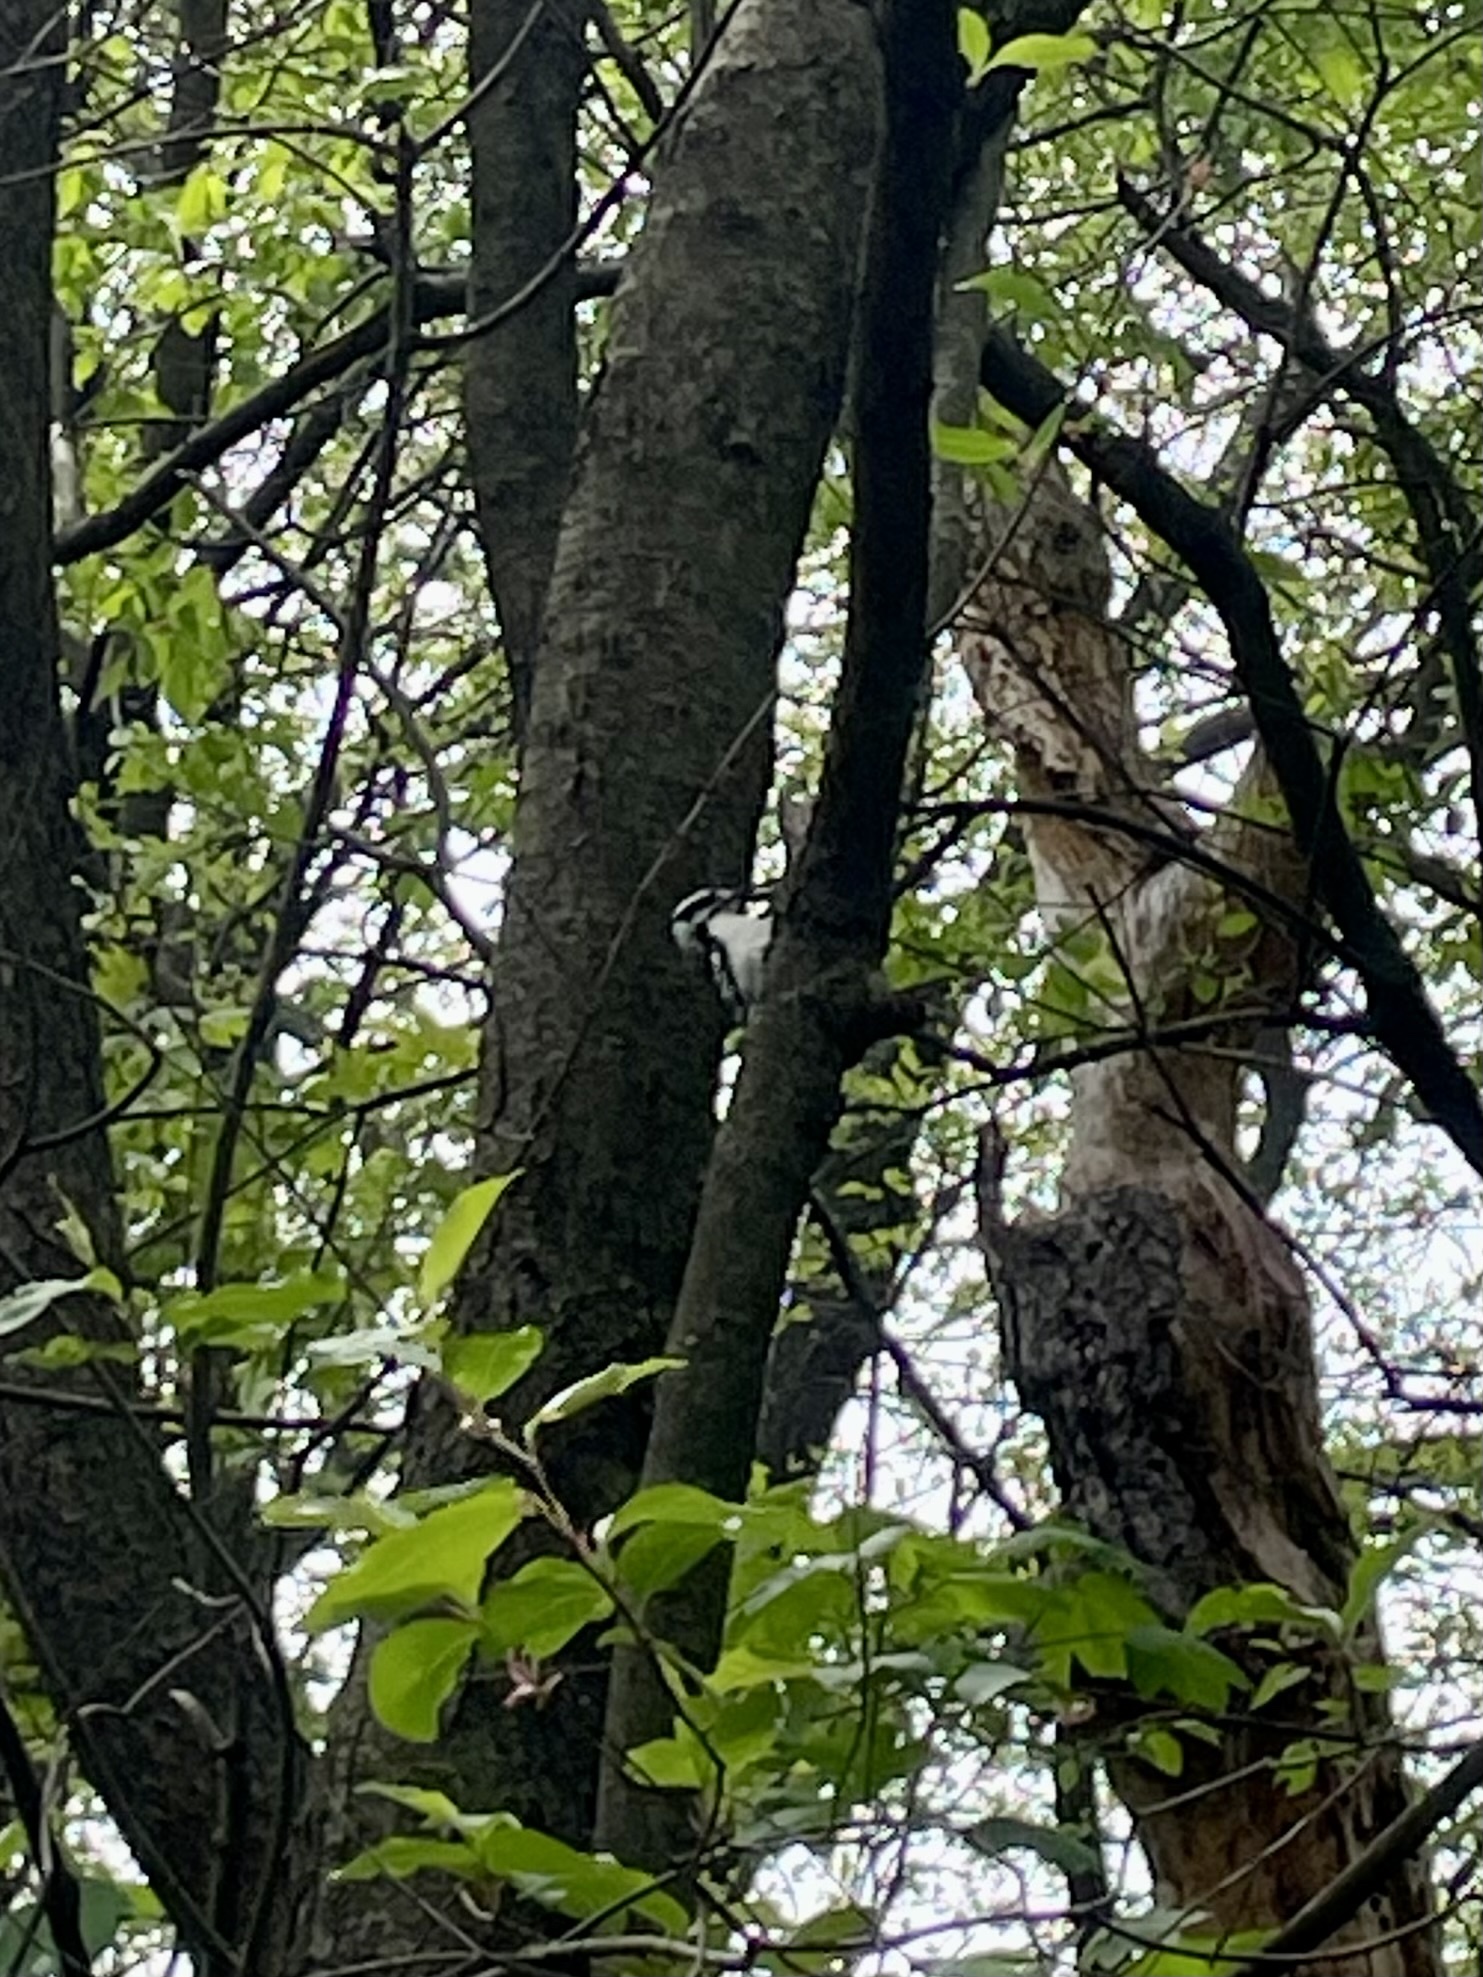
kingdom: Animalia
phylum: Chordata
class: Aves
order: Piciformes
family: Picidae
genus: Dryobates
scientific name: Dryobates pubescens
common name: Downy woodpecker
